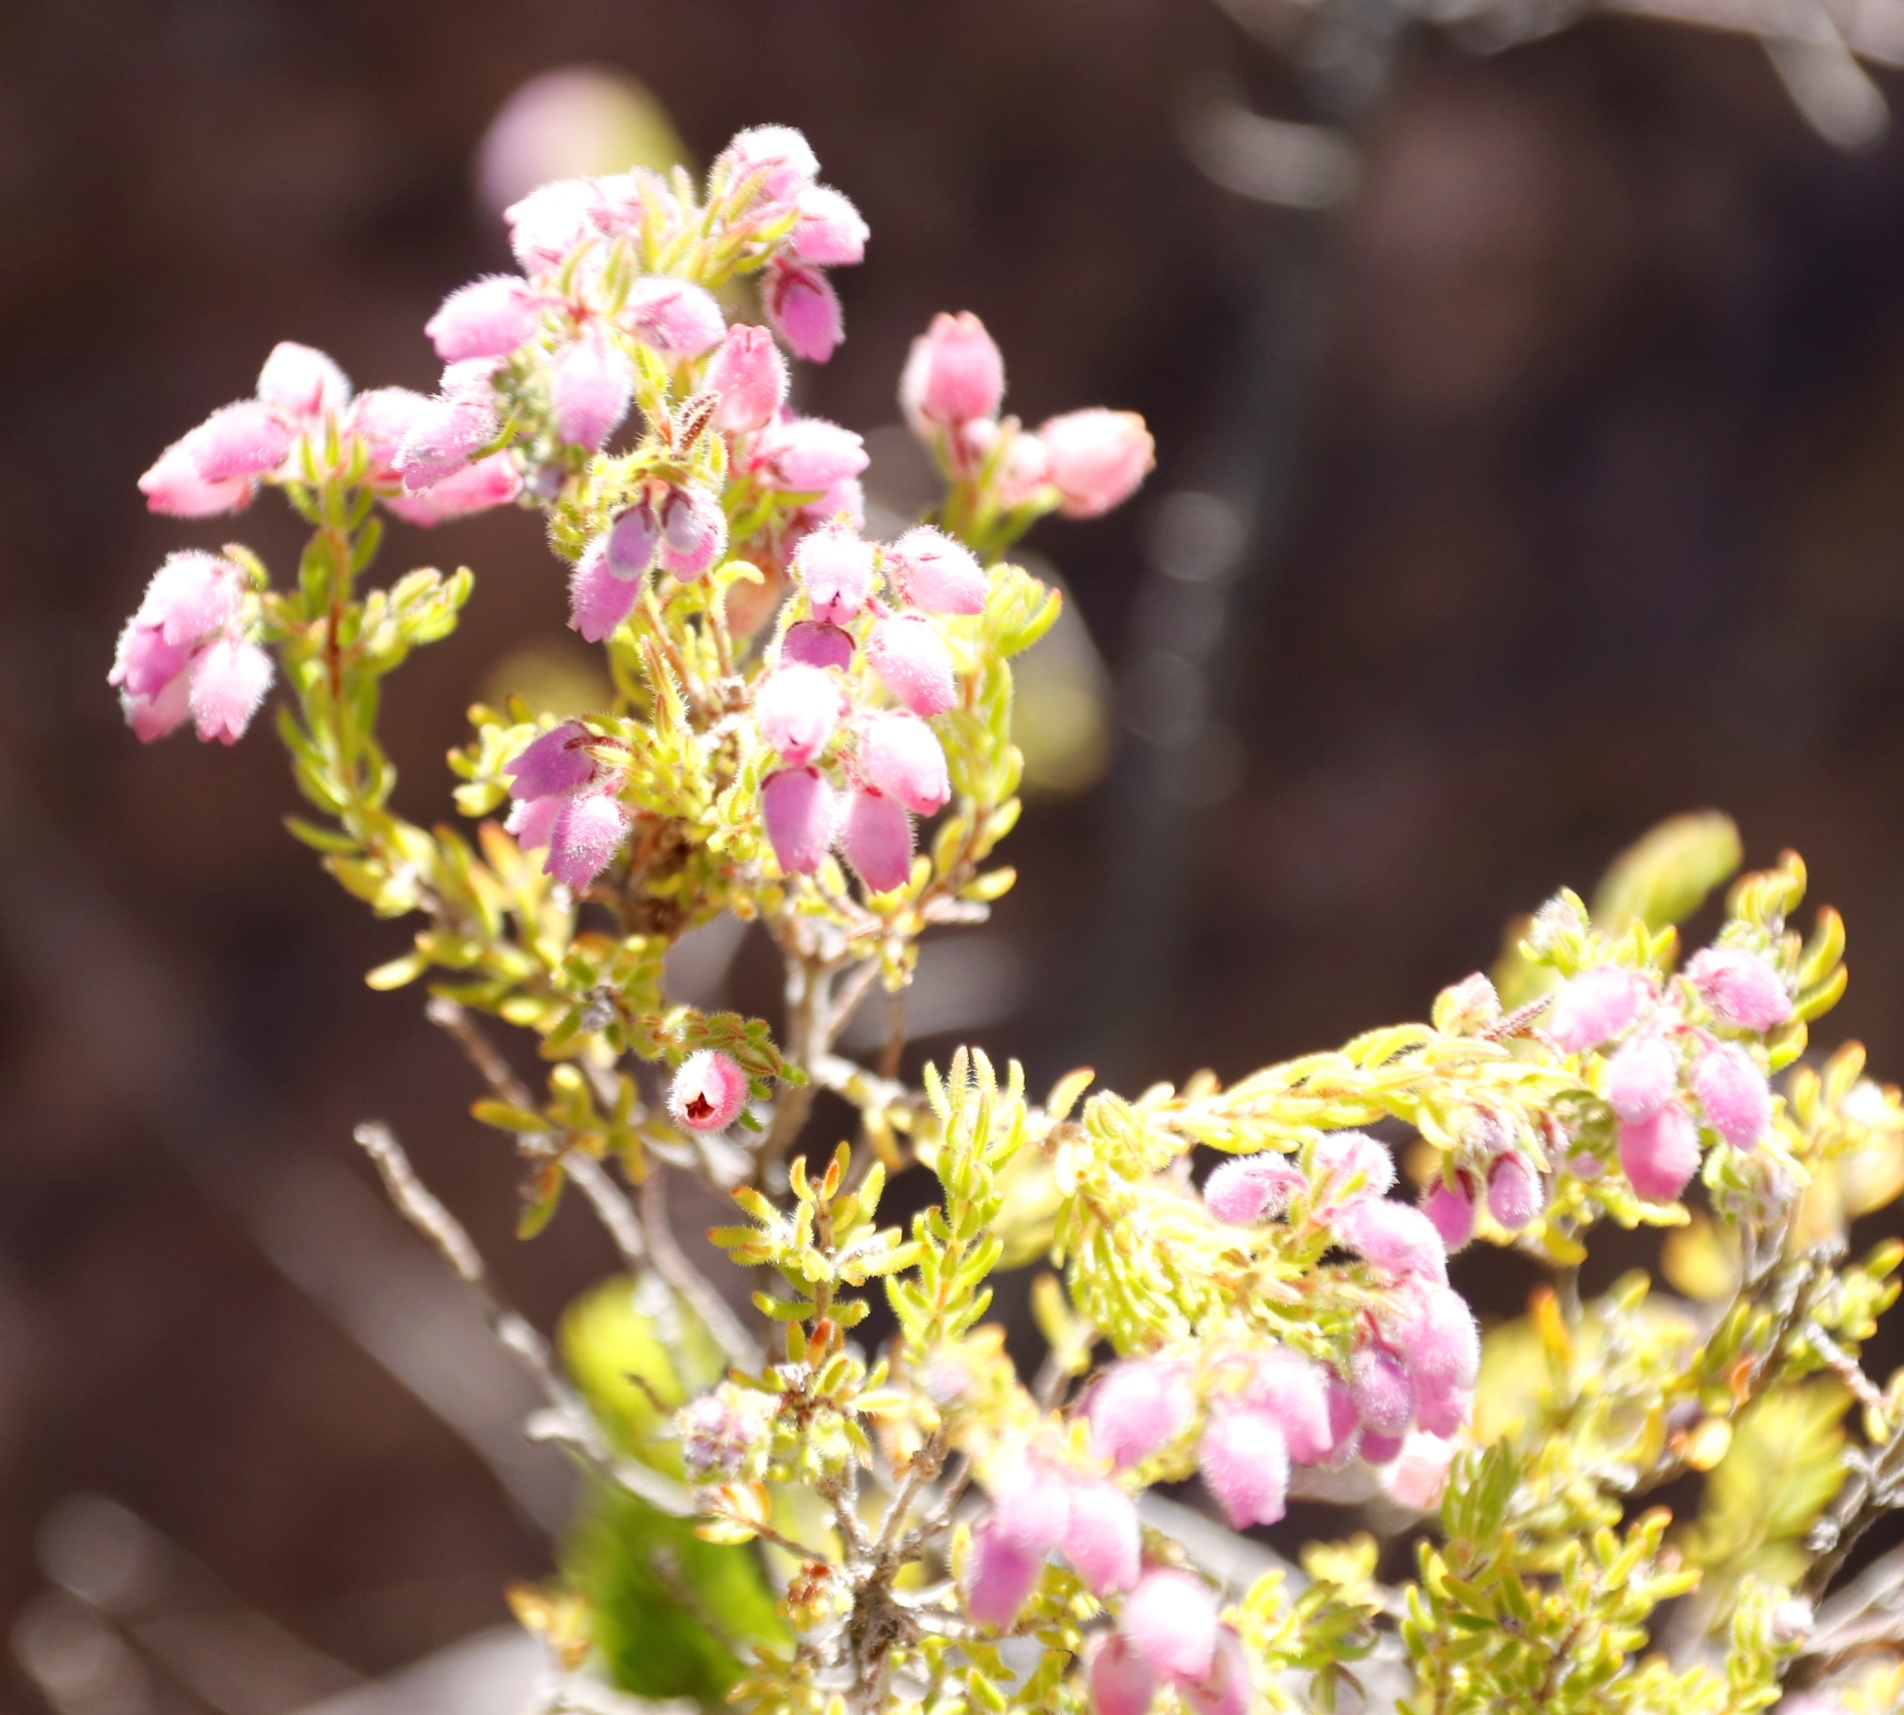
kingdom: Plantae
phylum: Tracheophyta
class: Magnoliopsida
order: Ericales
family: Ericaceae
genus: Erica
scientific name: Erica hirtiflora
